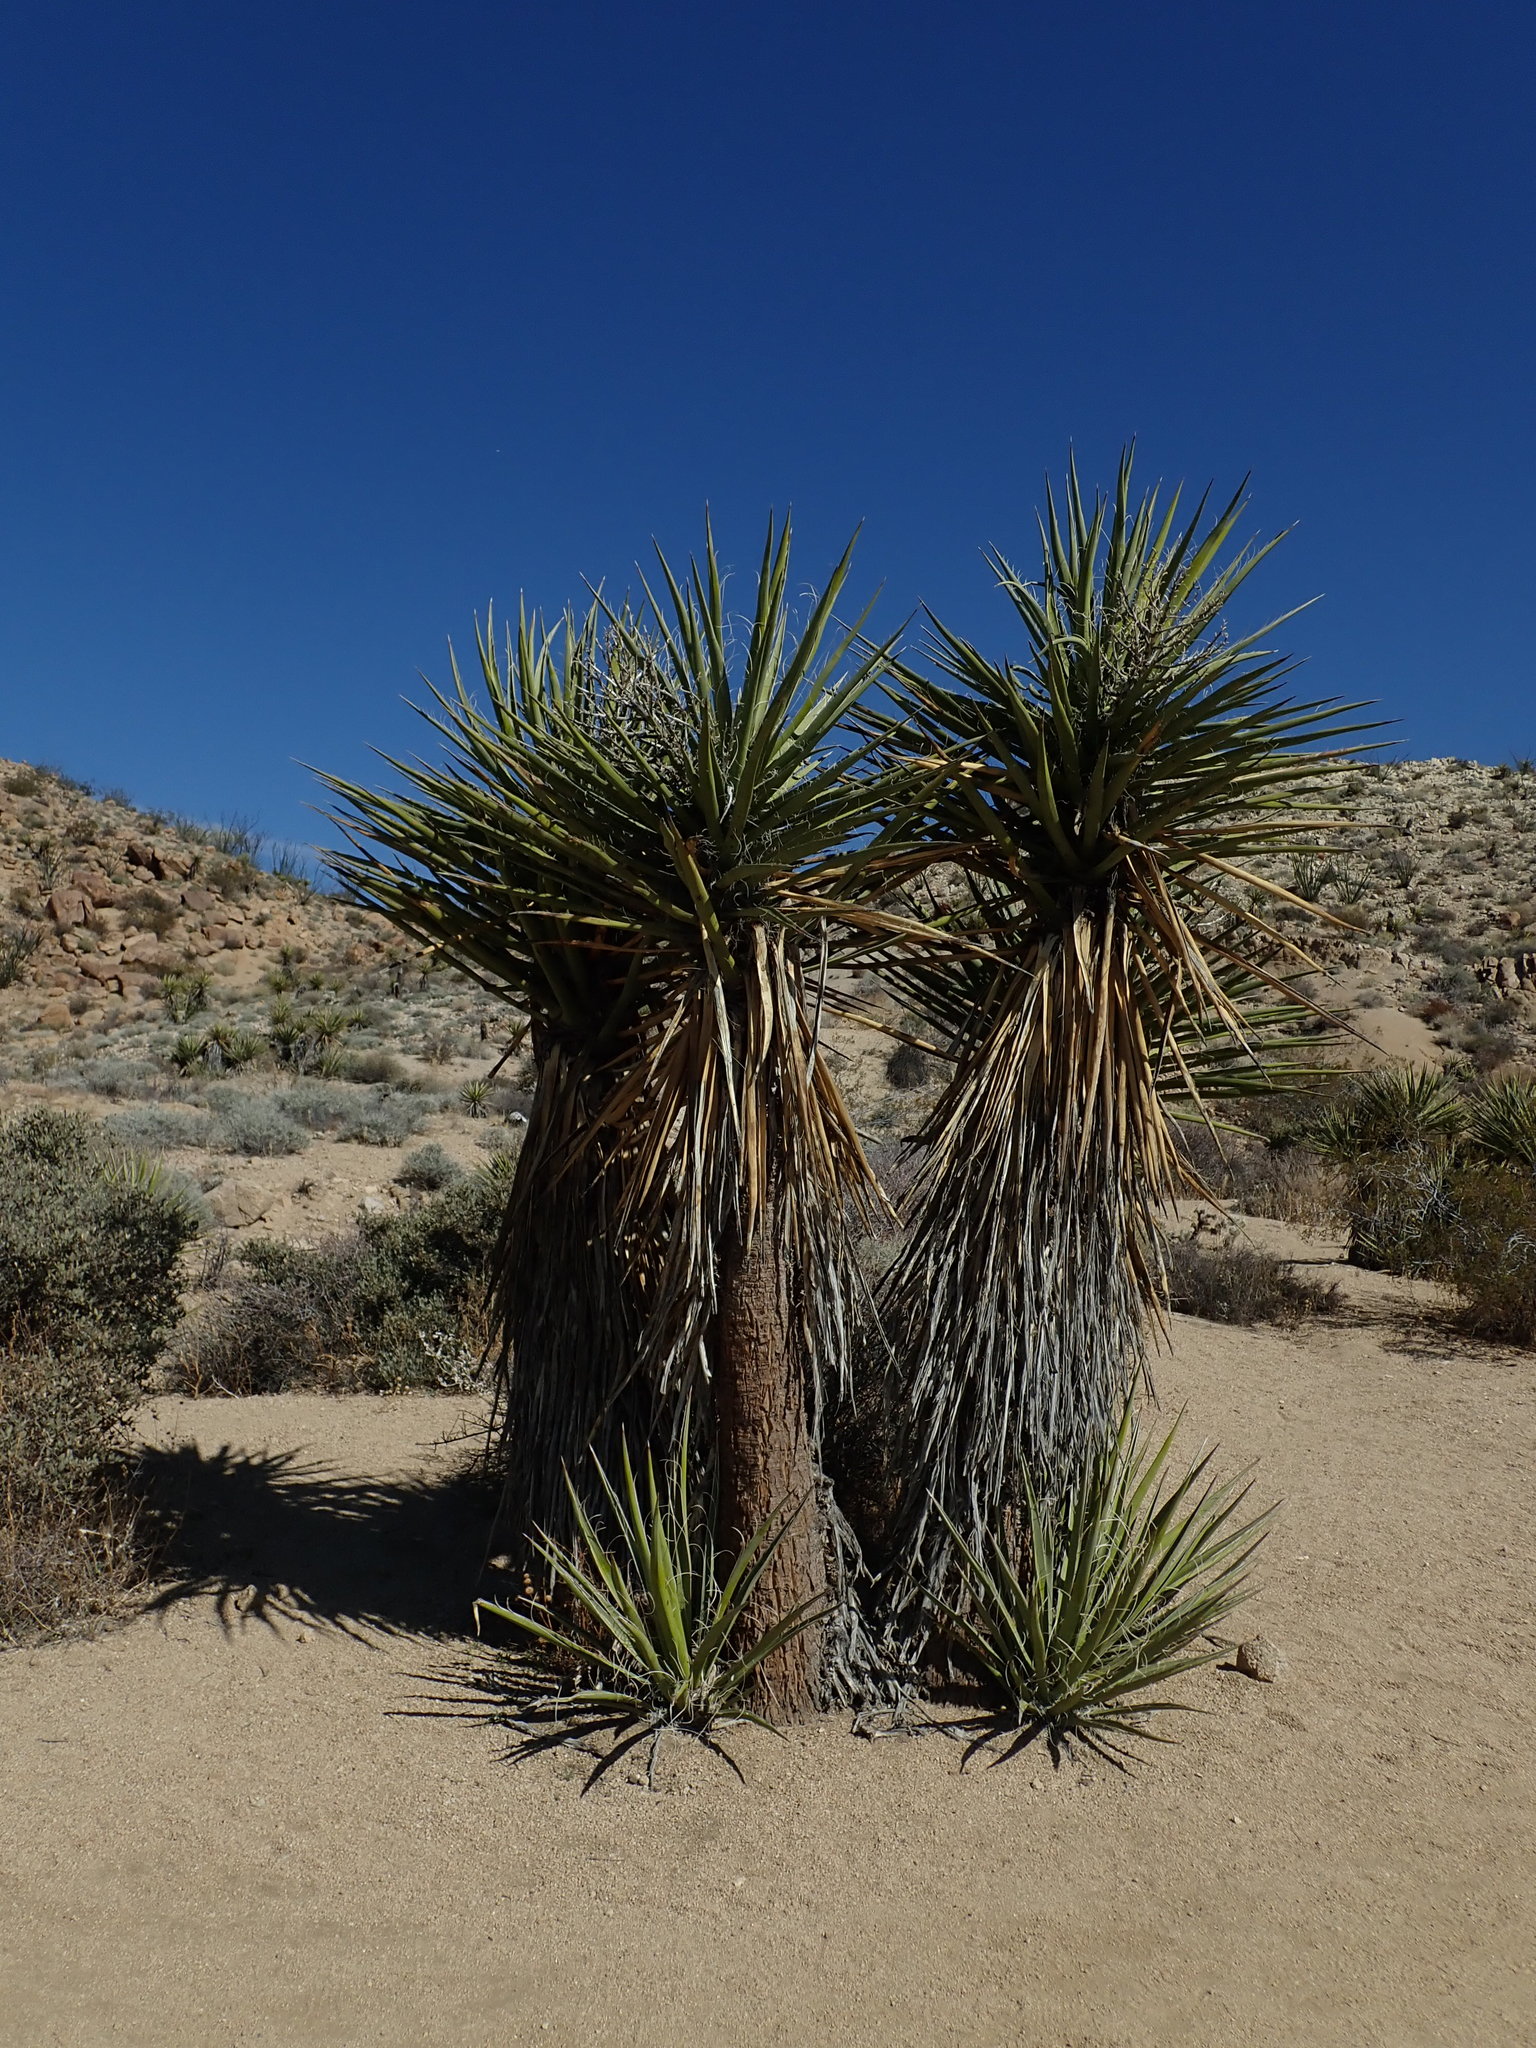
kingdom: Plantae
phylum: Tracheophyta
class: Liliopsida
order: Asparagales
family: Asparagaceae
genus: Yucca
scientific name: Yucca schidigera
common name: Mojave yucca
